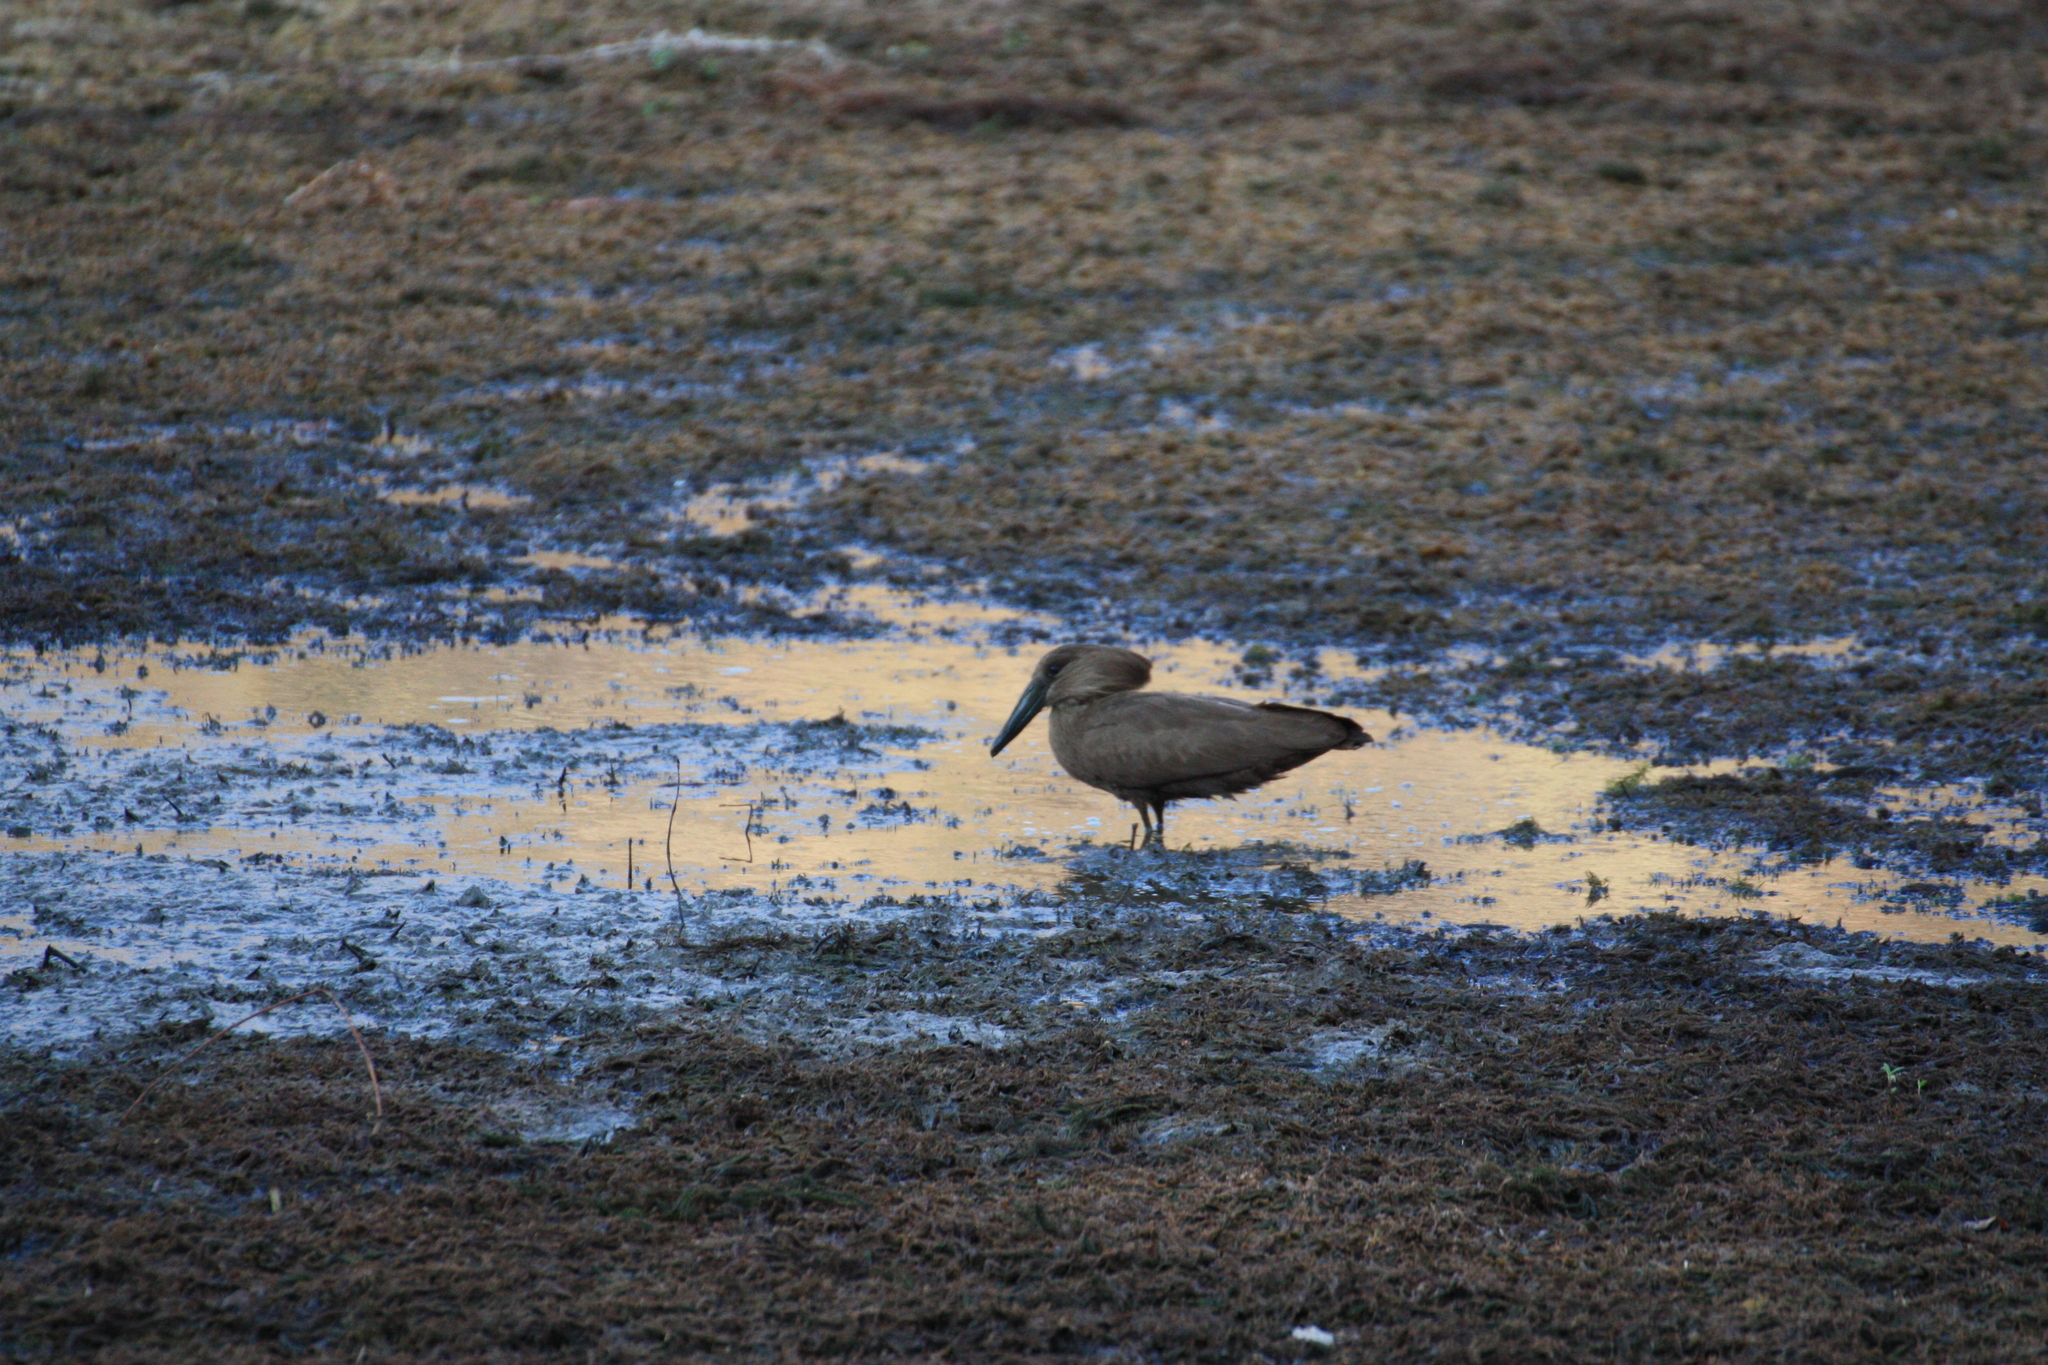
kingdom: Animalia
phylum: Chordata
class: Aves
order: Pelecaniformes
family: Scopidae
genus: Scopus
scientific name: Scopus umbretta
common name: Hamerkop
